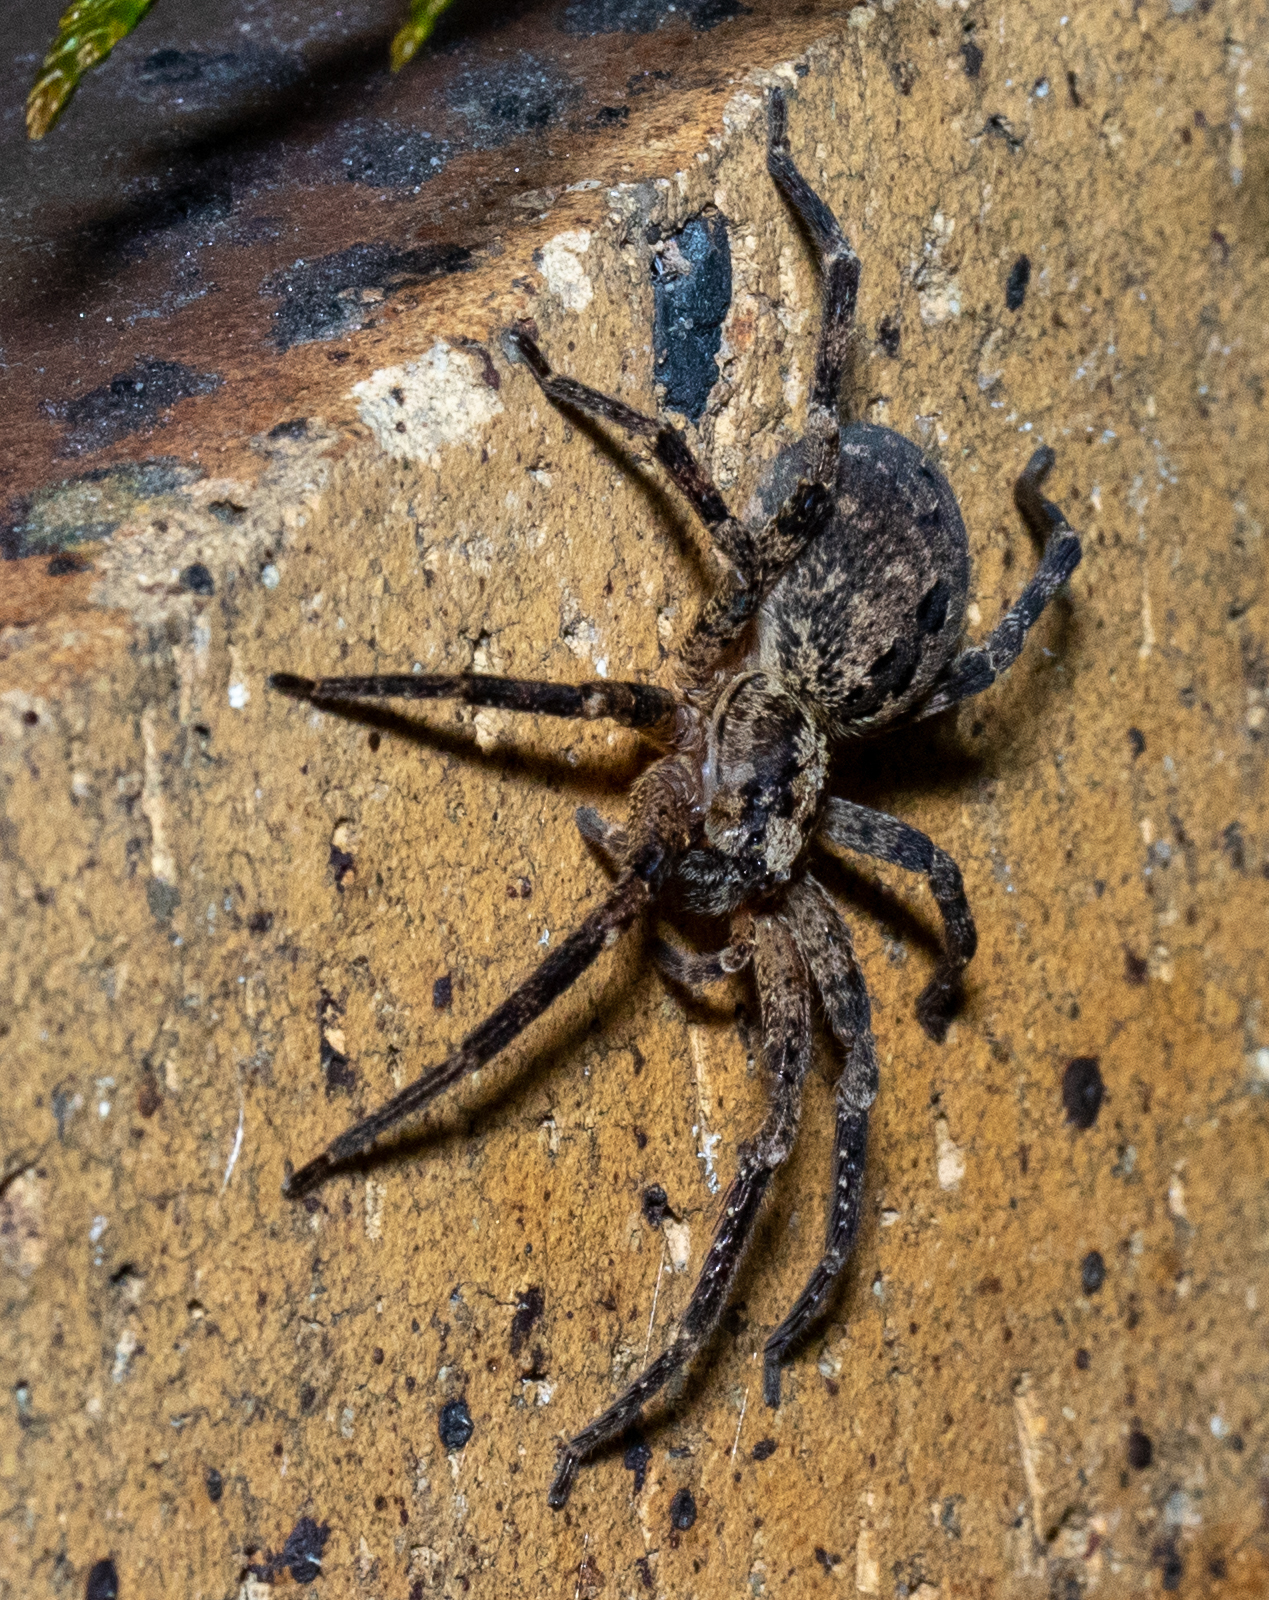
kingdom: Animalia
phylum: Arthropoda
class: Arachnida
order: Araneae
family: Zoropsidae
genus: Zoropsis
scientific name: Zoropsis spinimana
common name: Zoropsid spider
